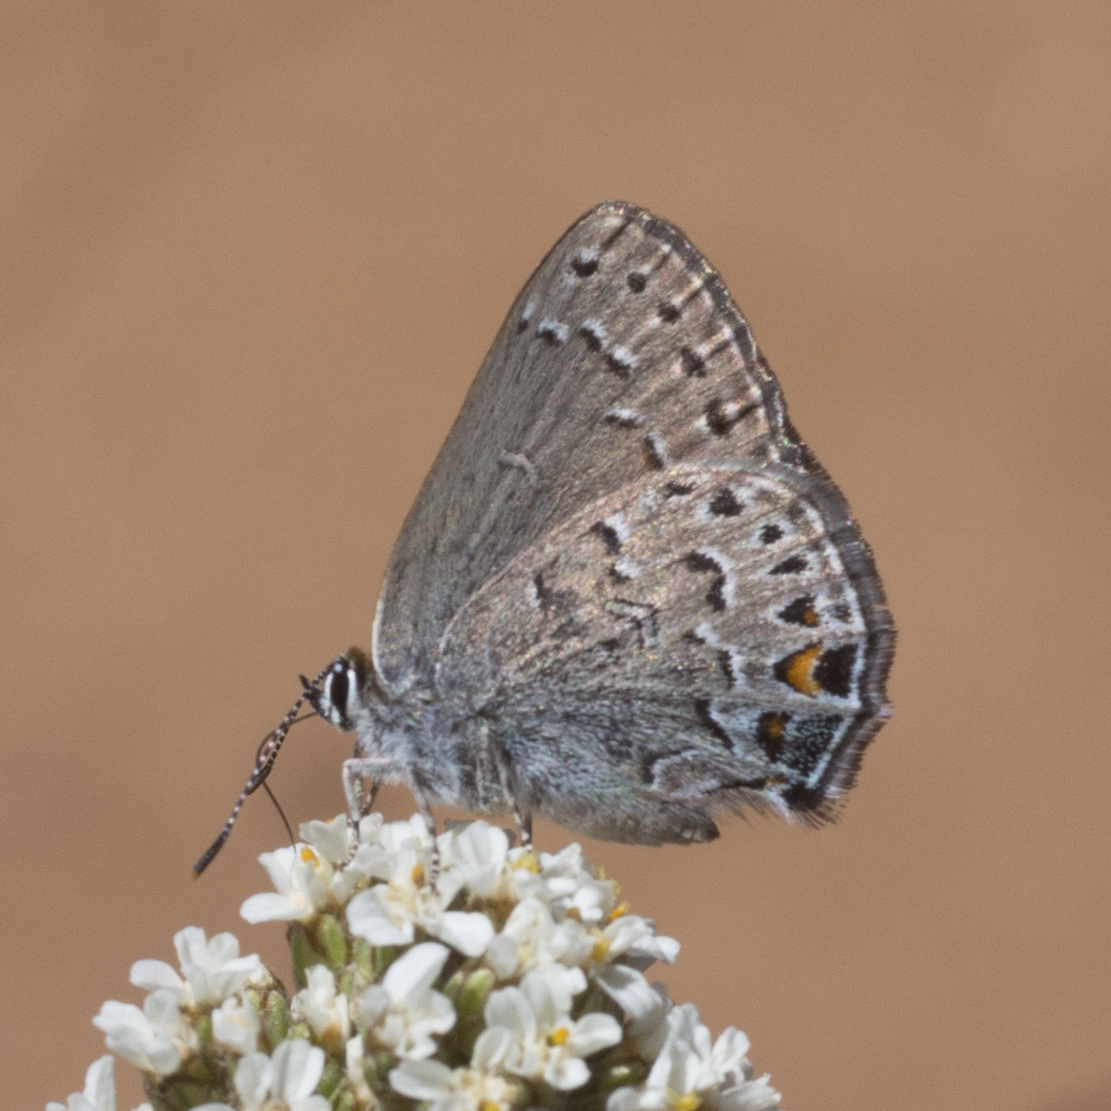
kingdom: Animalia
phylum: Arthropoda
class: Insecta
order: Lepidoptera
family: Lycaenidae
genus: Satyrium
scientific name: Satyrium behrii
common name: Behr's hairstreak
